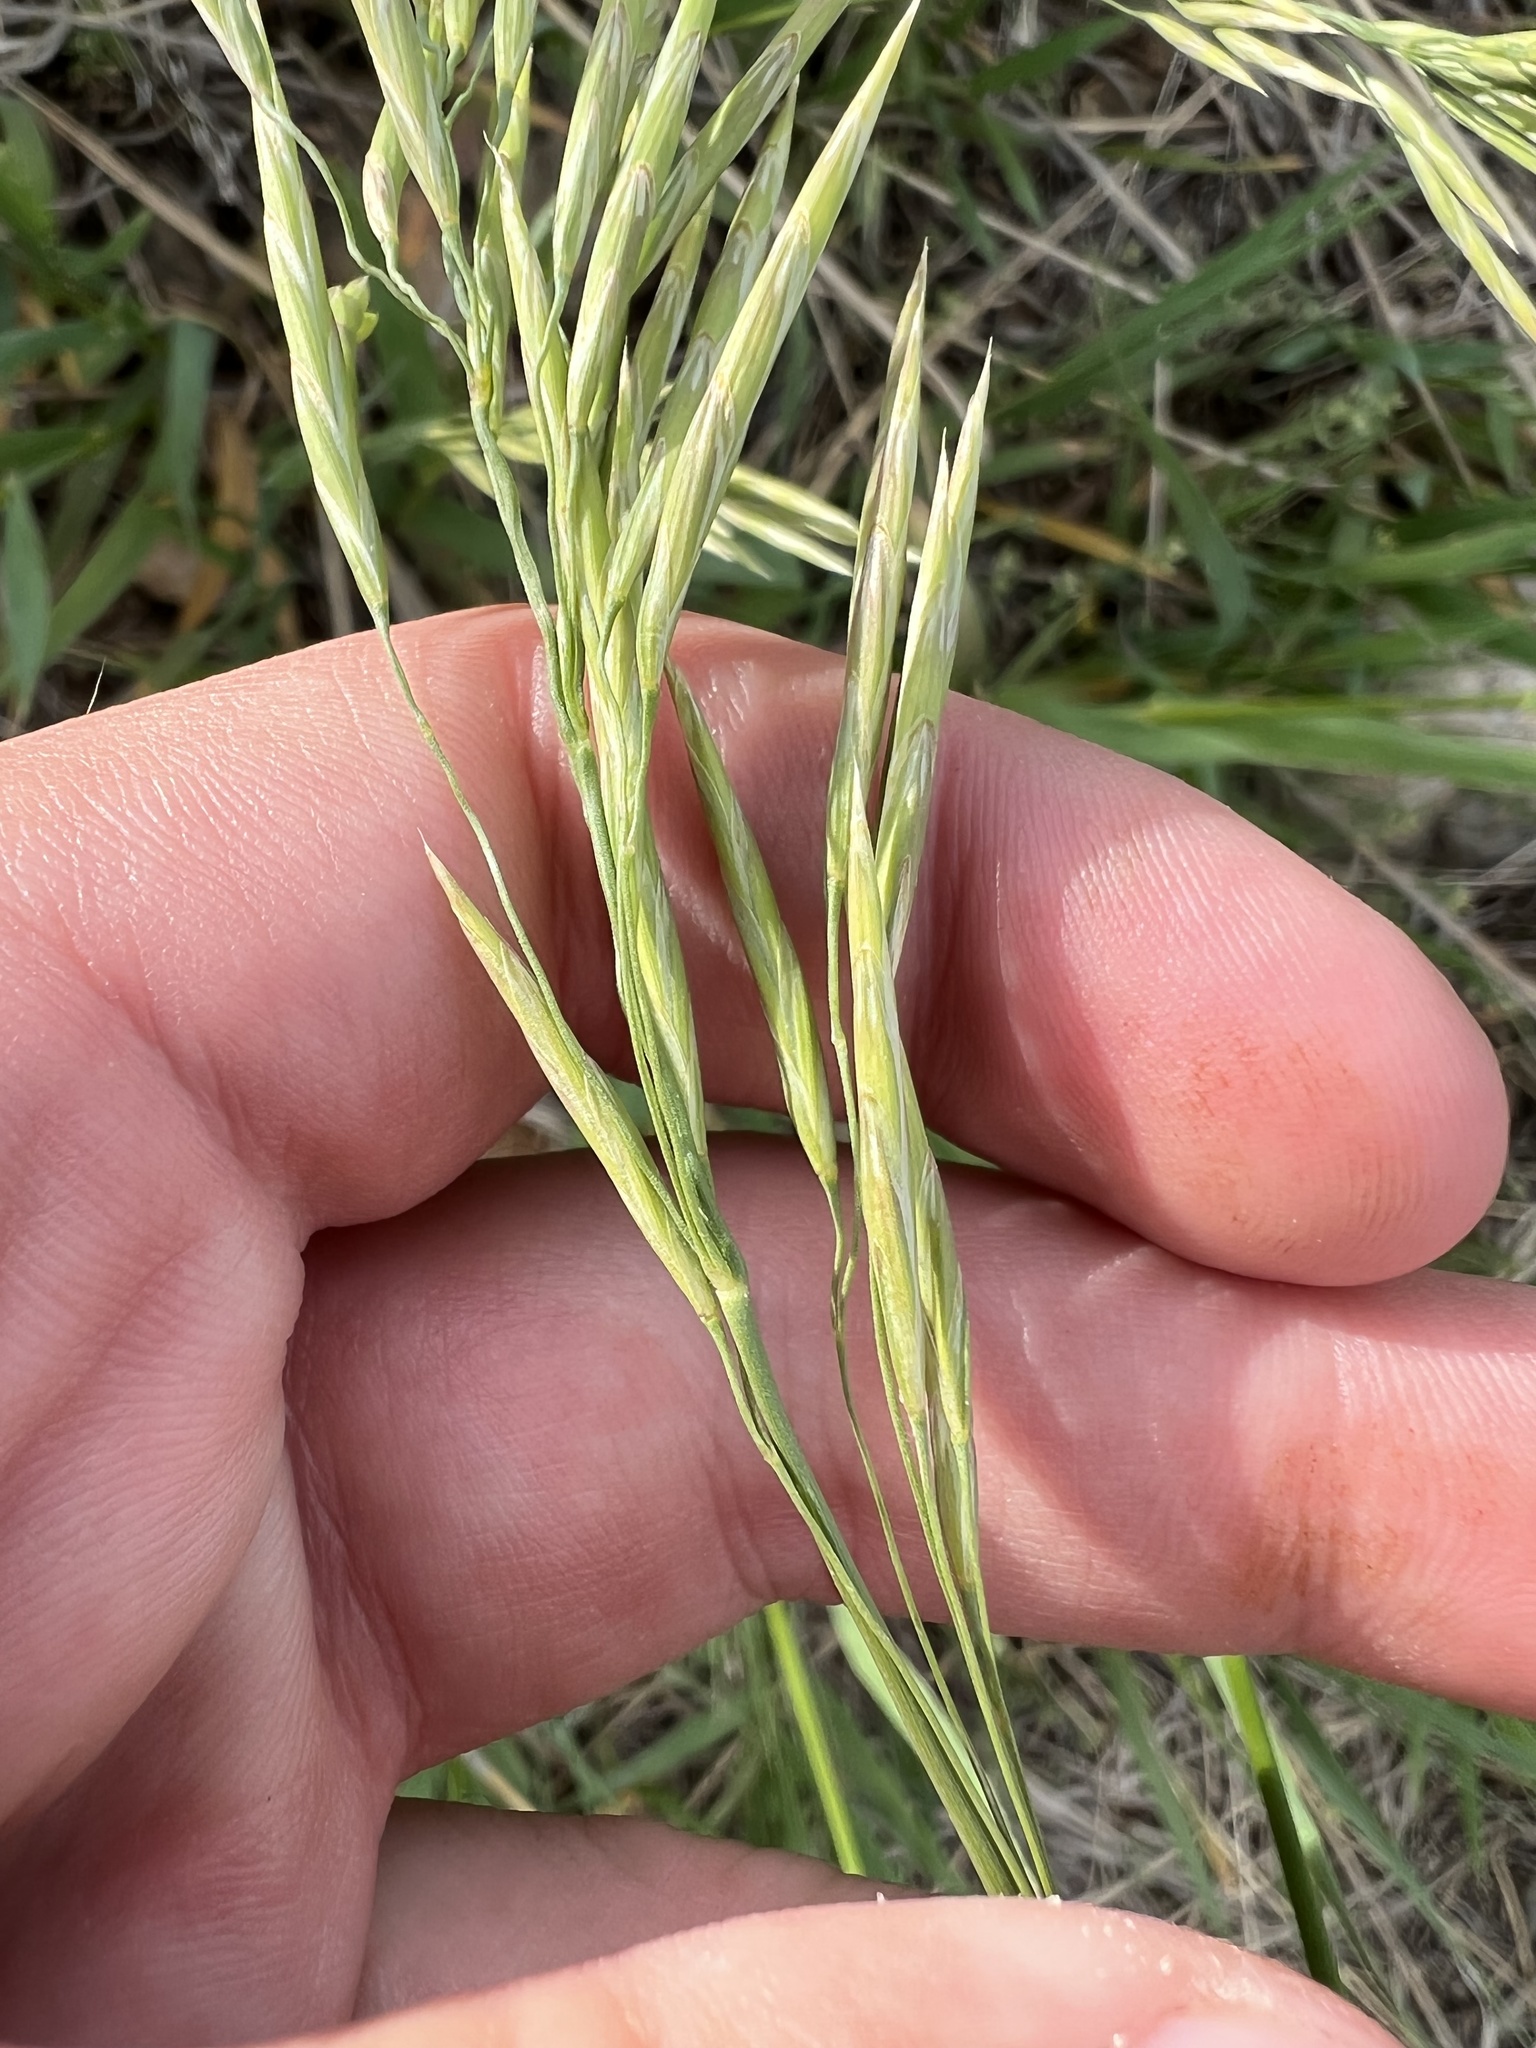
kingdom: Plantae
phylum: Tracheophyta
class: Liliopsida
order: Poales
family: Poaceae
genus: Bromus
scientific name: Bromus inermis
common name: Smooth brome
